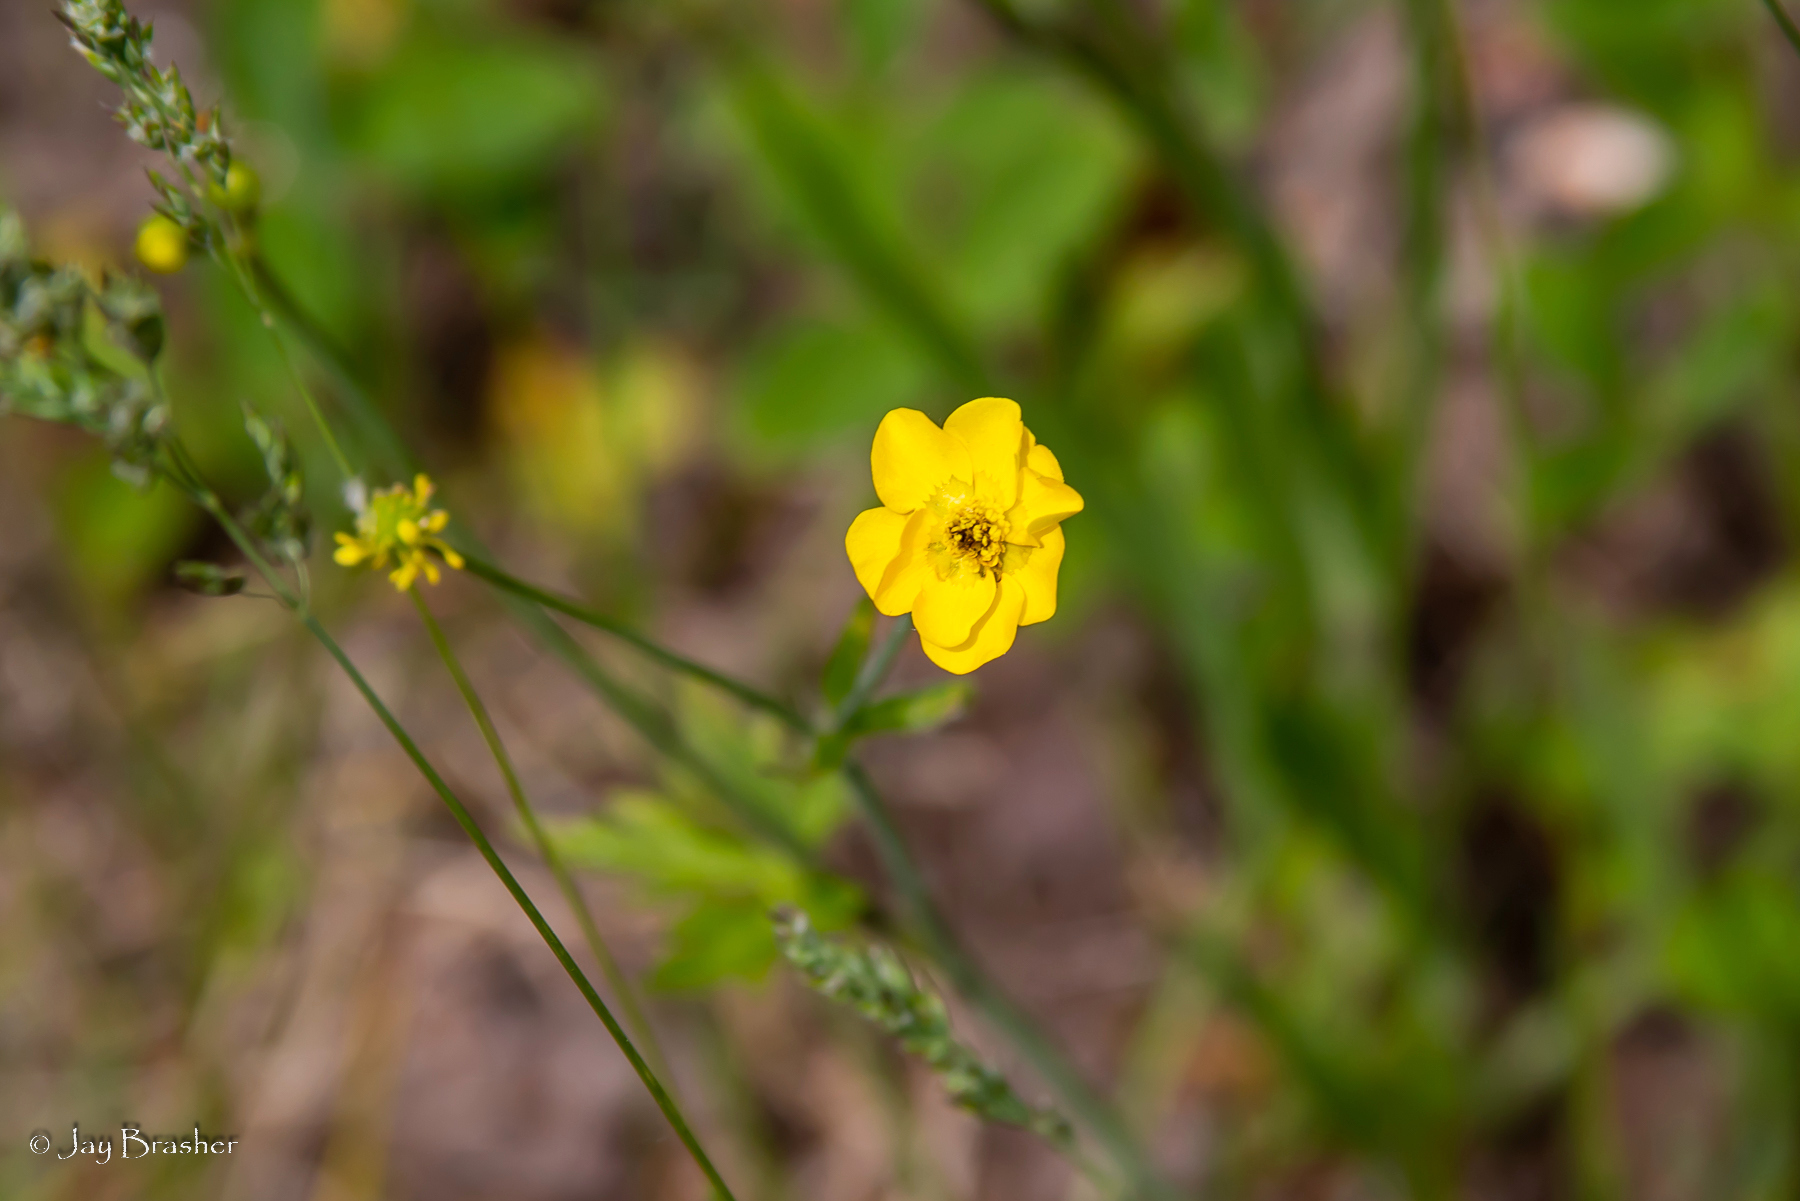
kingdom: Plantae
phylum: Tracheophyta
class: Magnoliopsida
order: Ranunculales
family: Ranunculaceae
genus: Ranunculus
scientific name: Ranunculus acris
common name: Meadow buttercup
